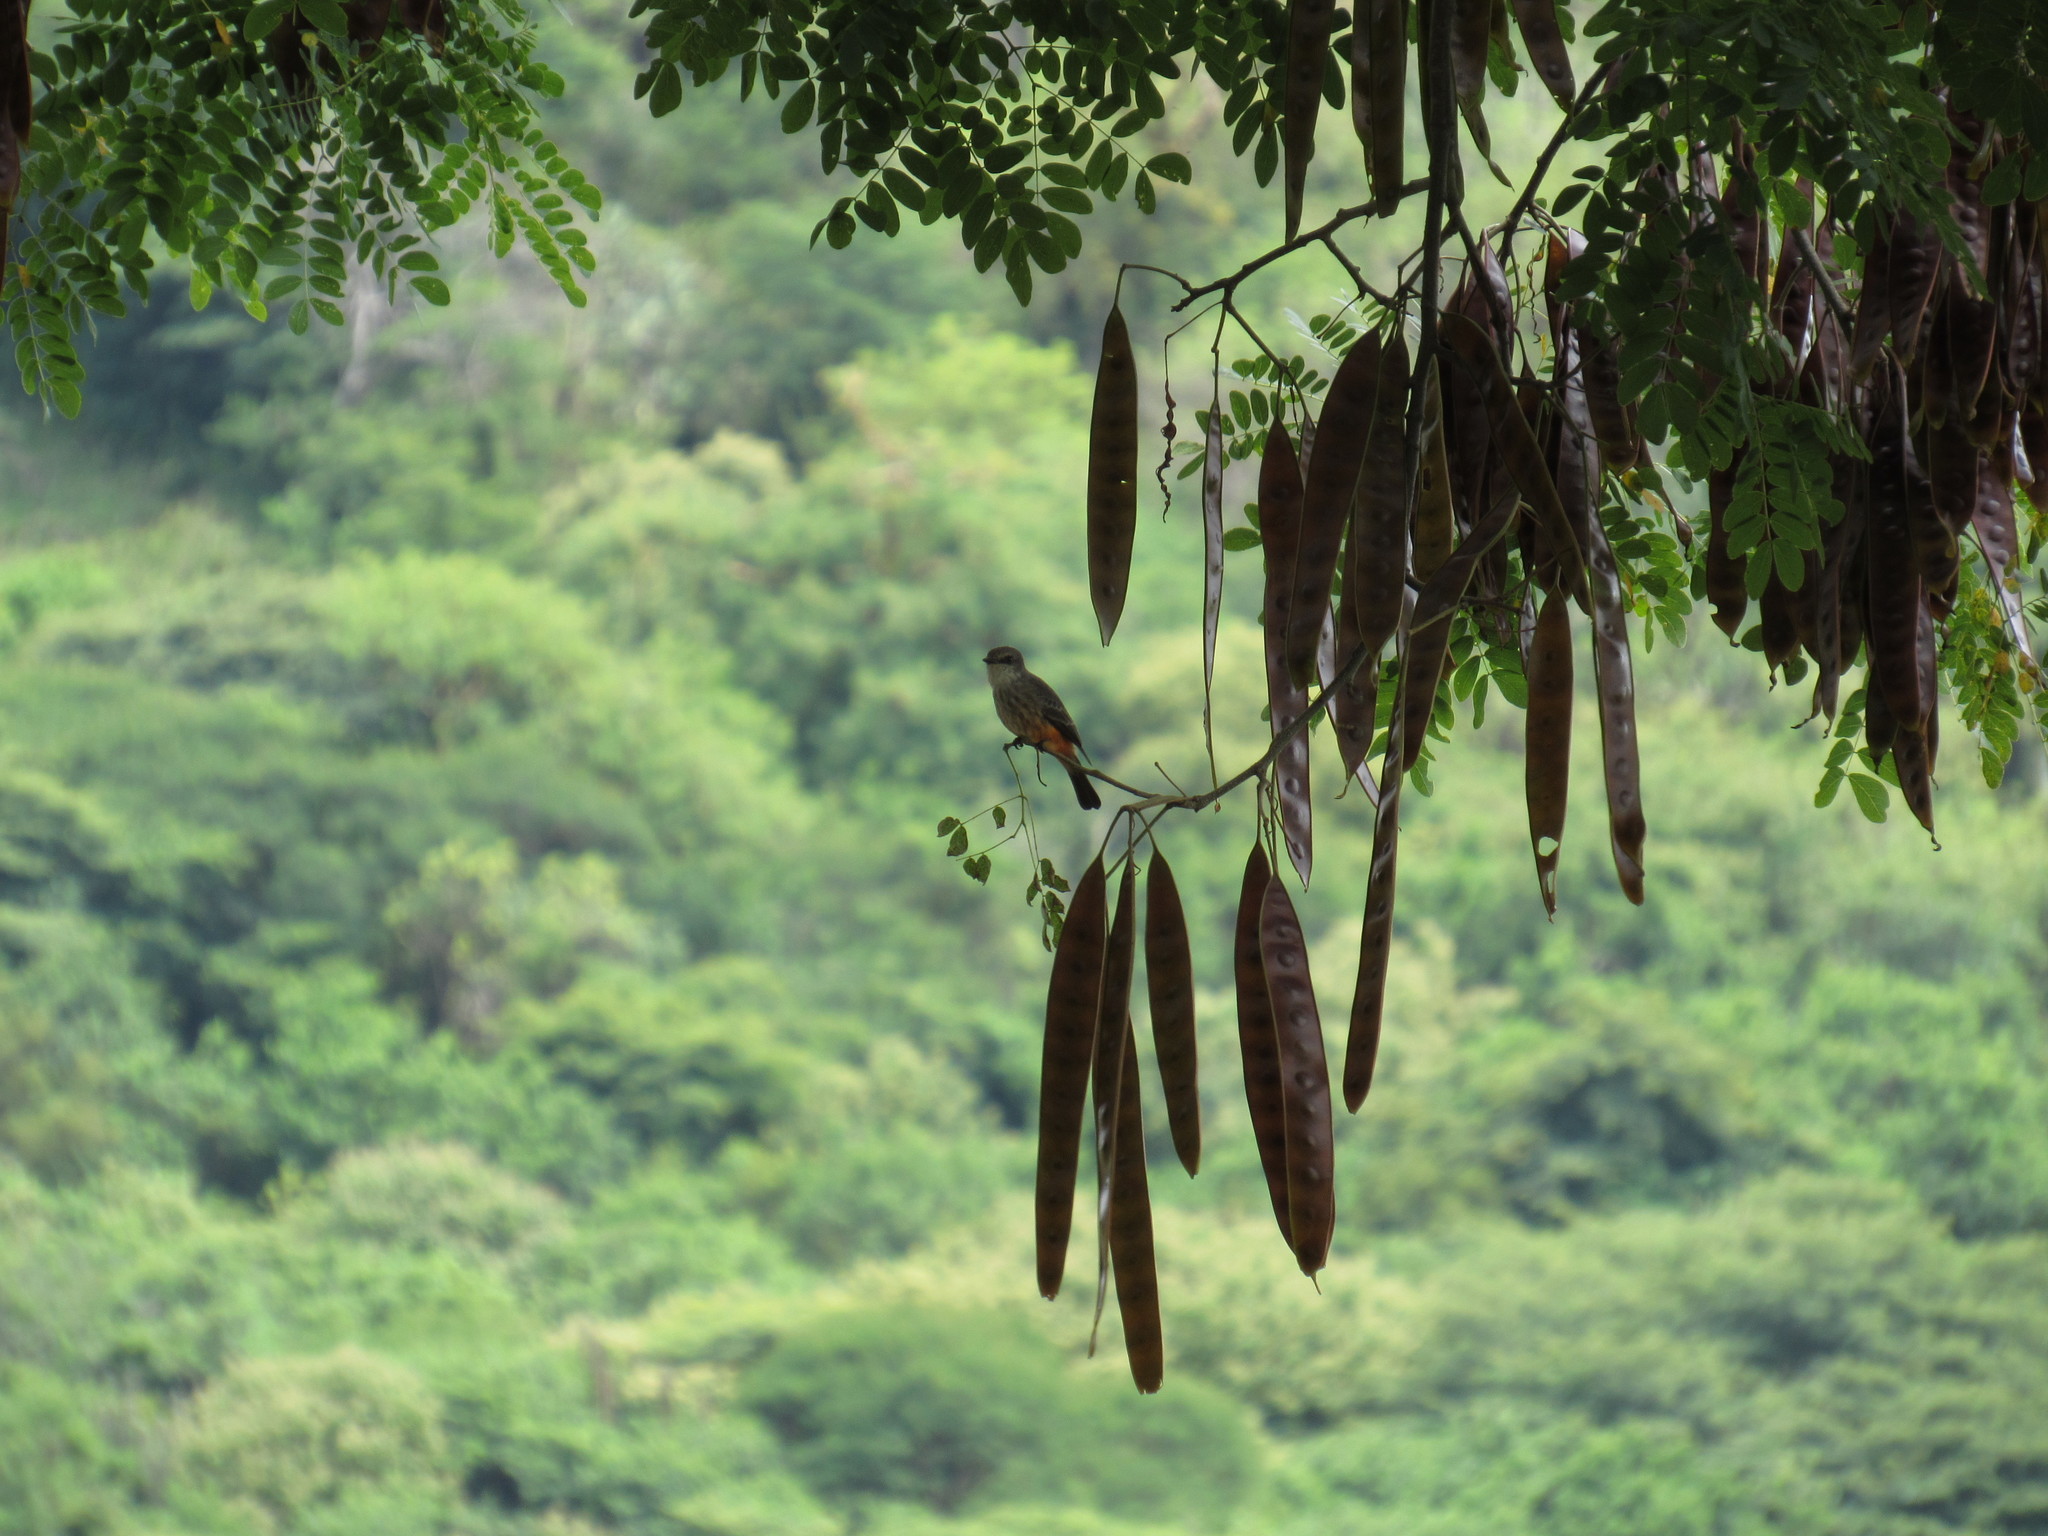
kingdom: Animalia
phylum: Chordata
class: Aves
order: Passeriformes
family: Tyrannidae
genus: Pyrocephalus
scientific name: Pyrocephalus rubinus
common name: Vermilion flycatcher
